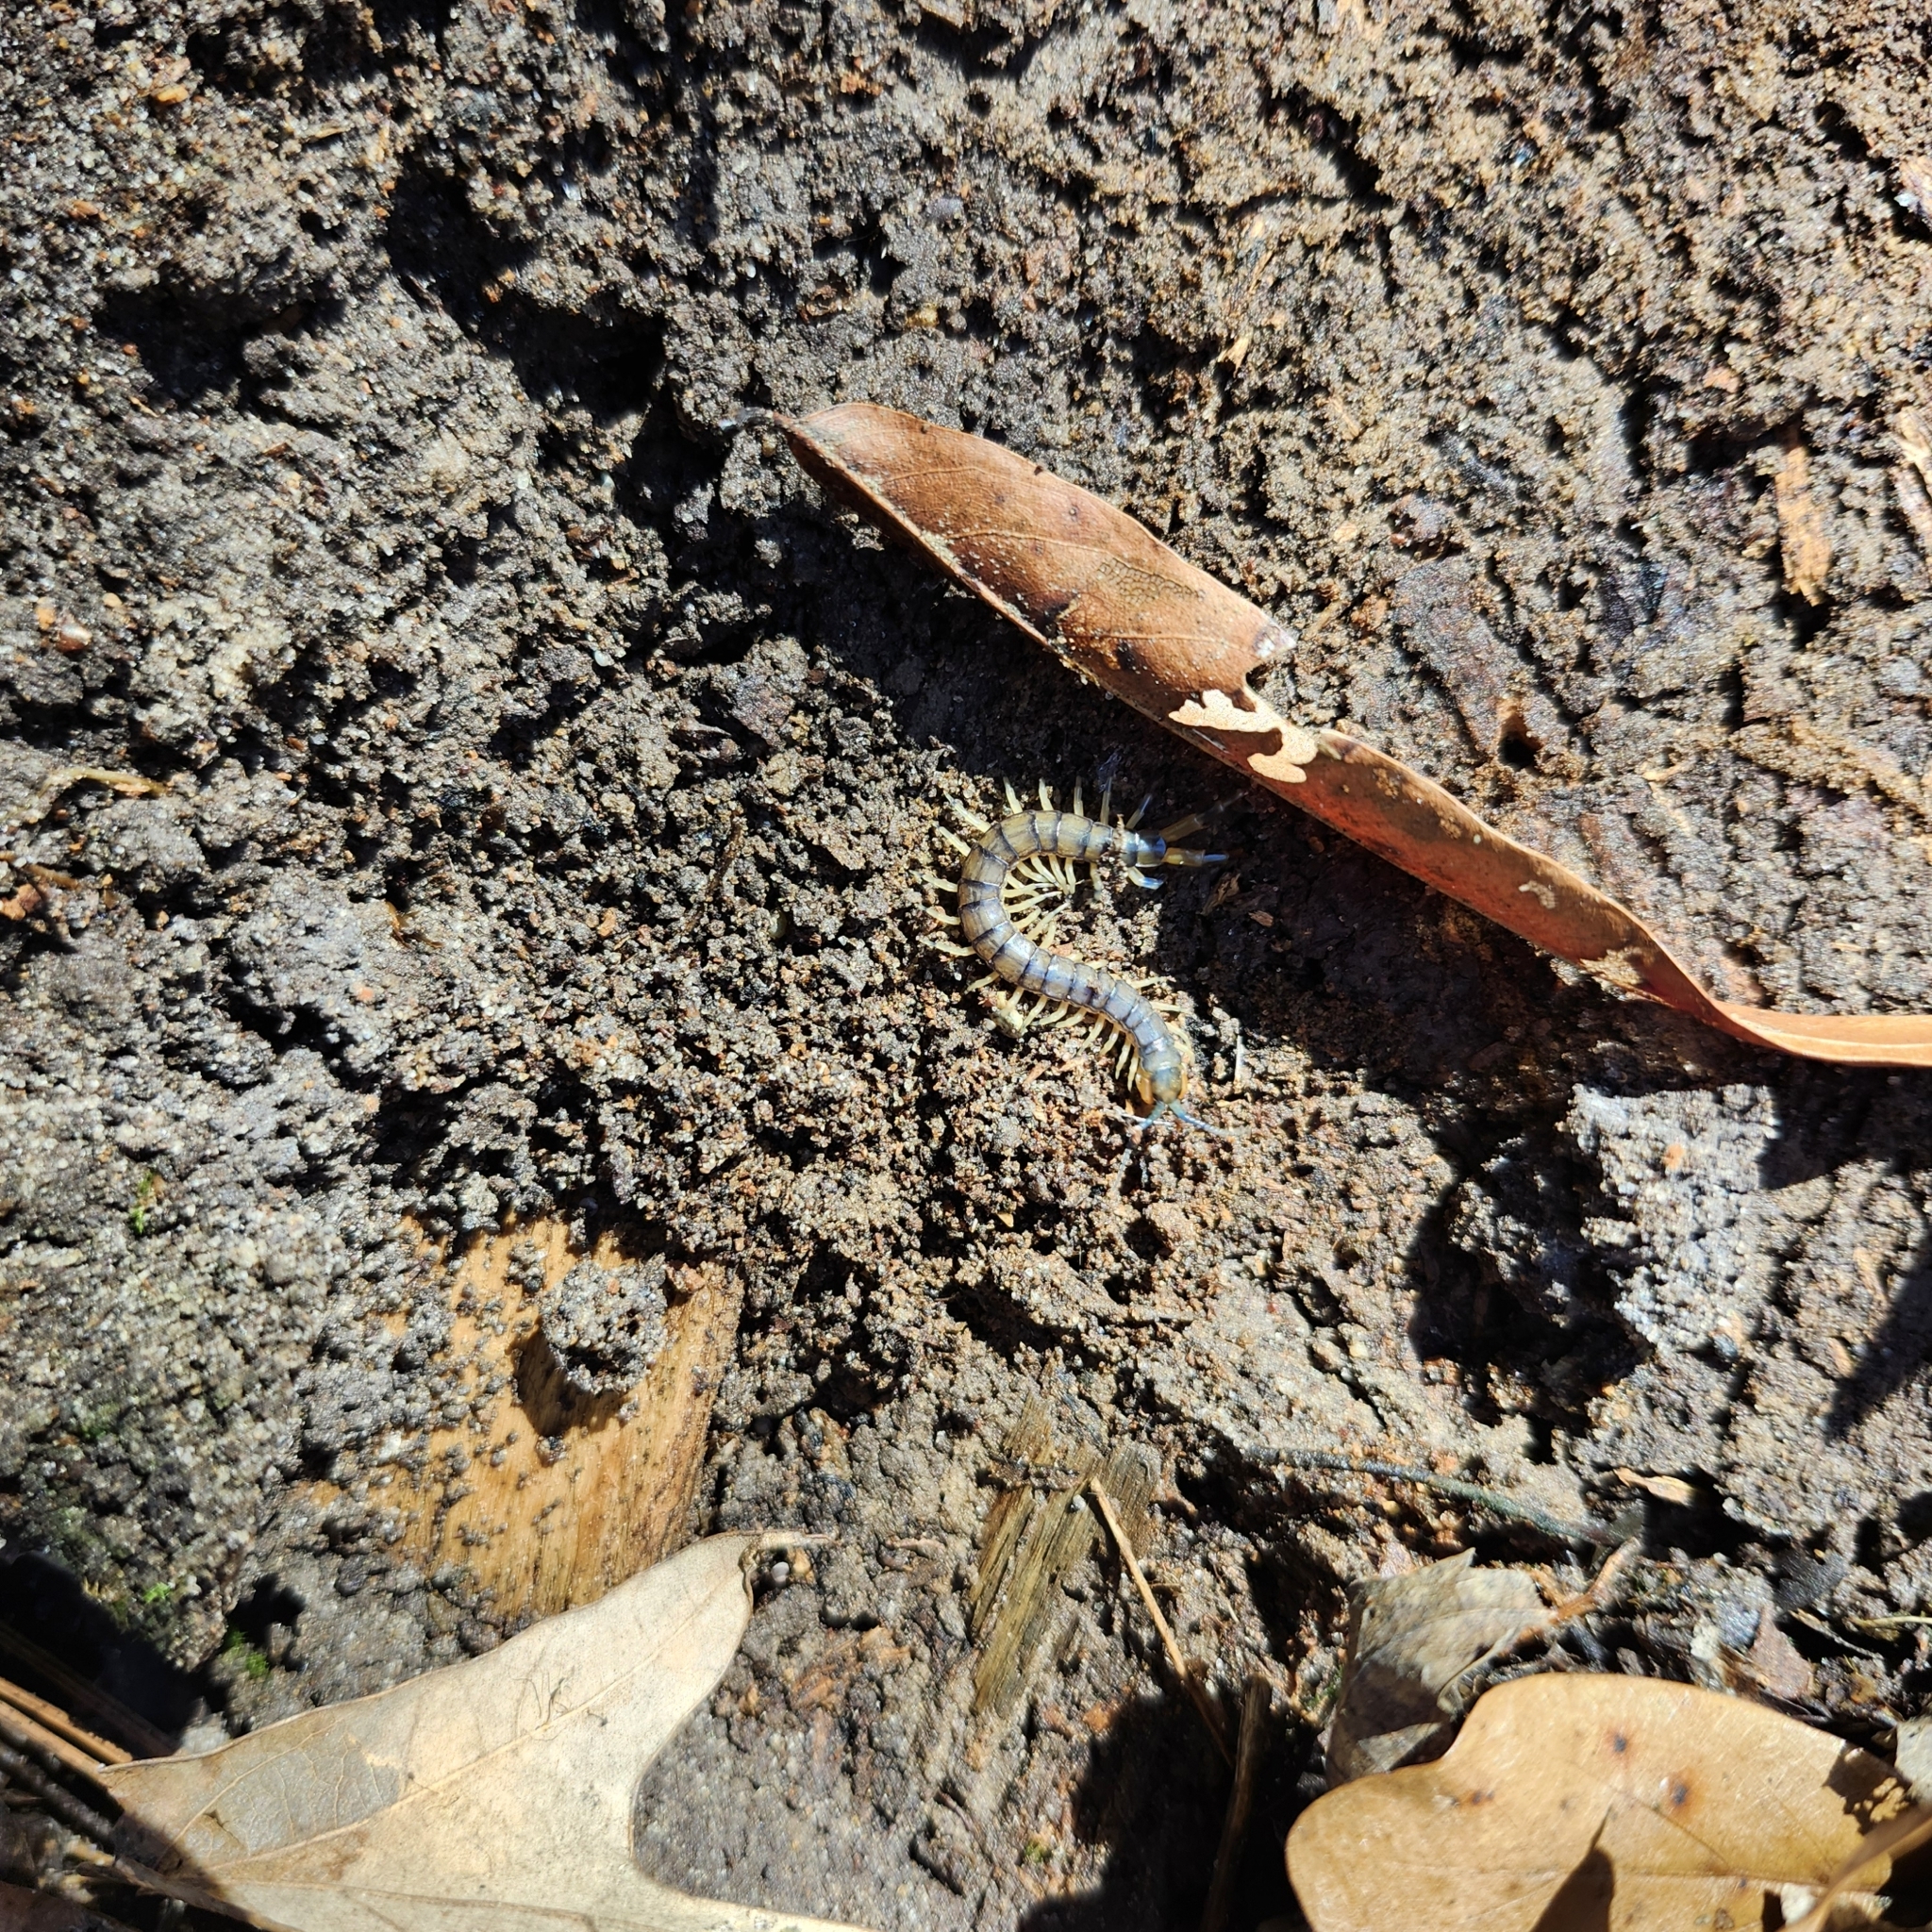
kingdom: Animalia
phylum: Arthropoda
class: Chilopoda
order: Scolopendromorpha
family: Scolopendridae
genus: Hemiscolopendra
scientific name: Hemiscolopendra marginata
